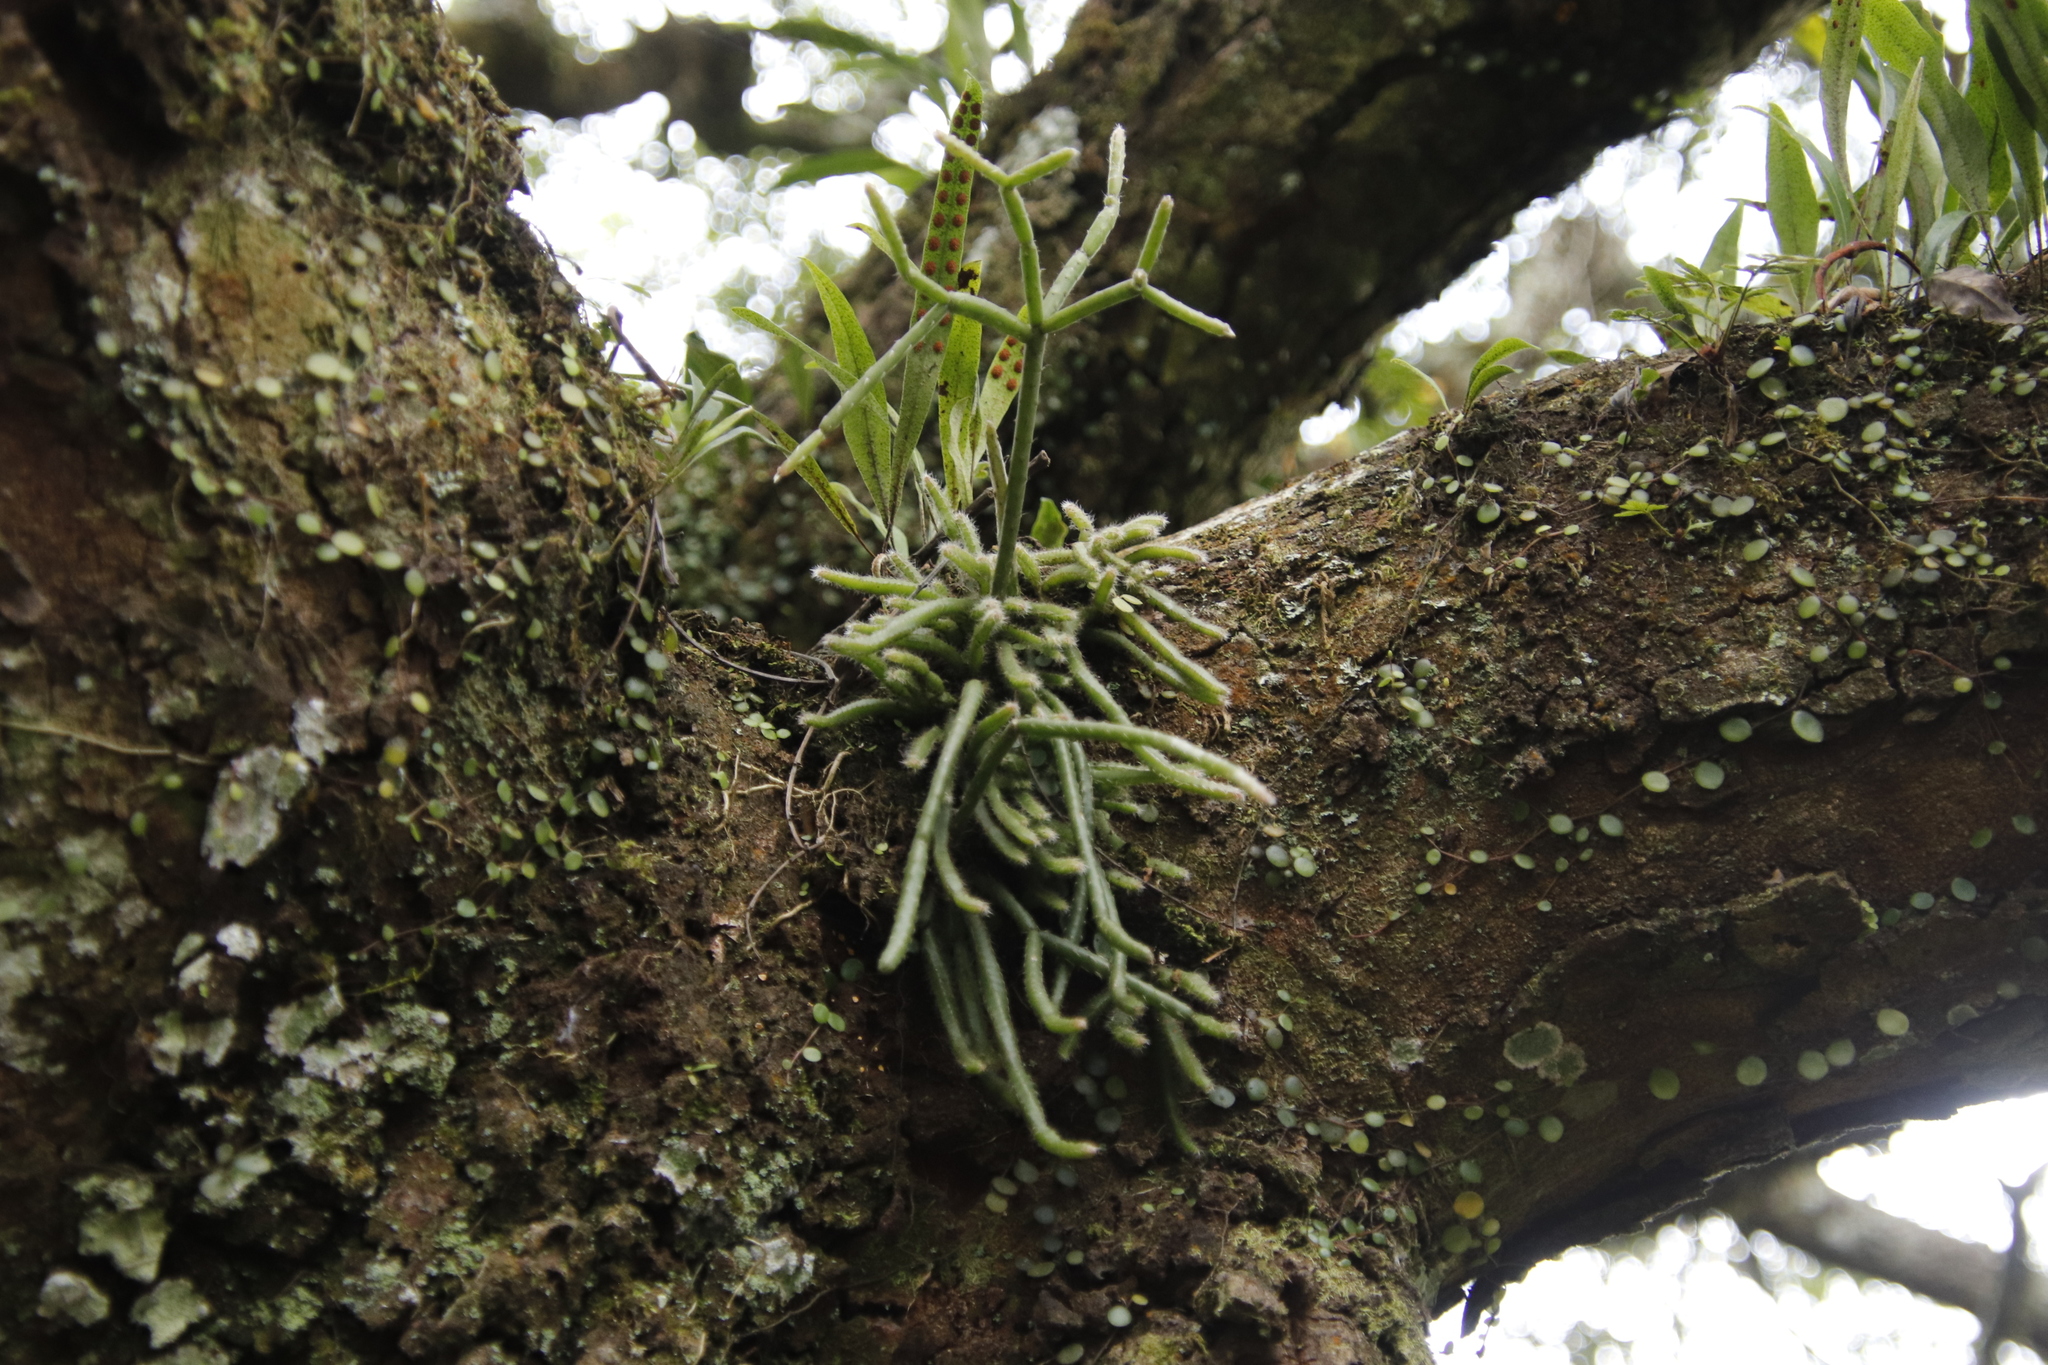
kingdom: Plantae
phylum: Tracheophyta
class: Magnoliopsida
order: Caryophyllales
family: Cactaceae
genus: Rhipsalis
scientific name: Rhipsalis baccifera
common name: Mistletoe cactus
